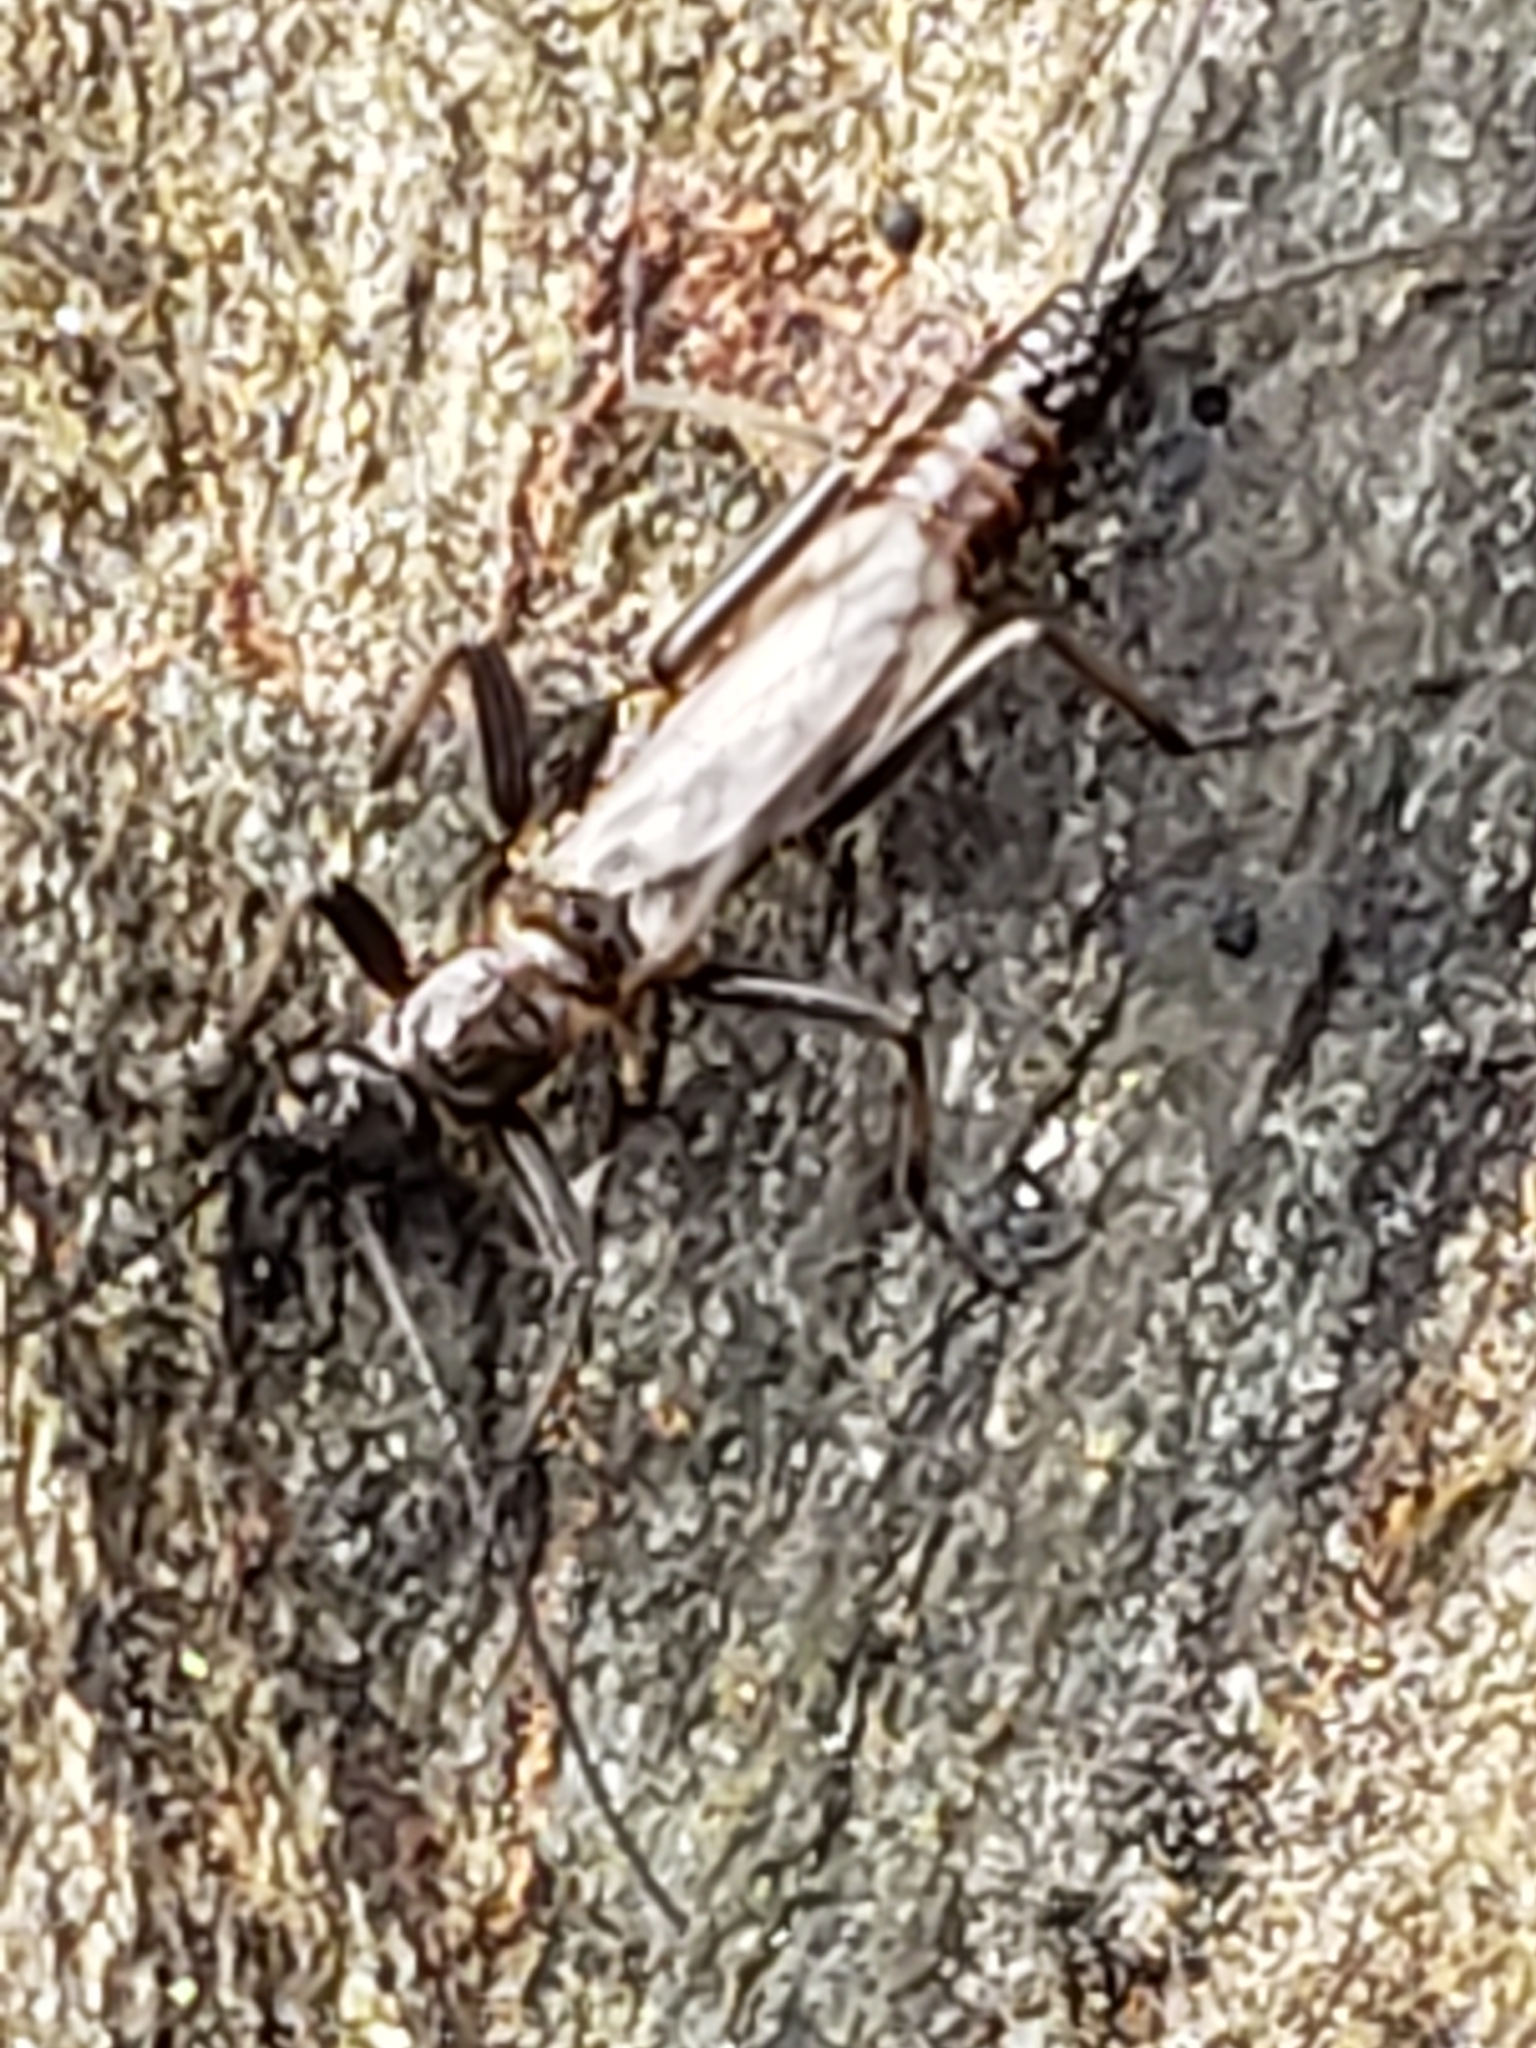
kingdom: Animalia
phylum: Arthropoda
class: Insecta
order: Plecoptera
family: Capniidae
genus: Allocapnia
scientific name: Allocapnia rickeri
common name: Midwest snowfly
